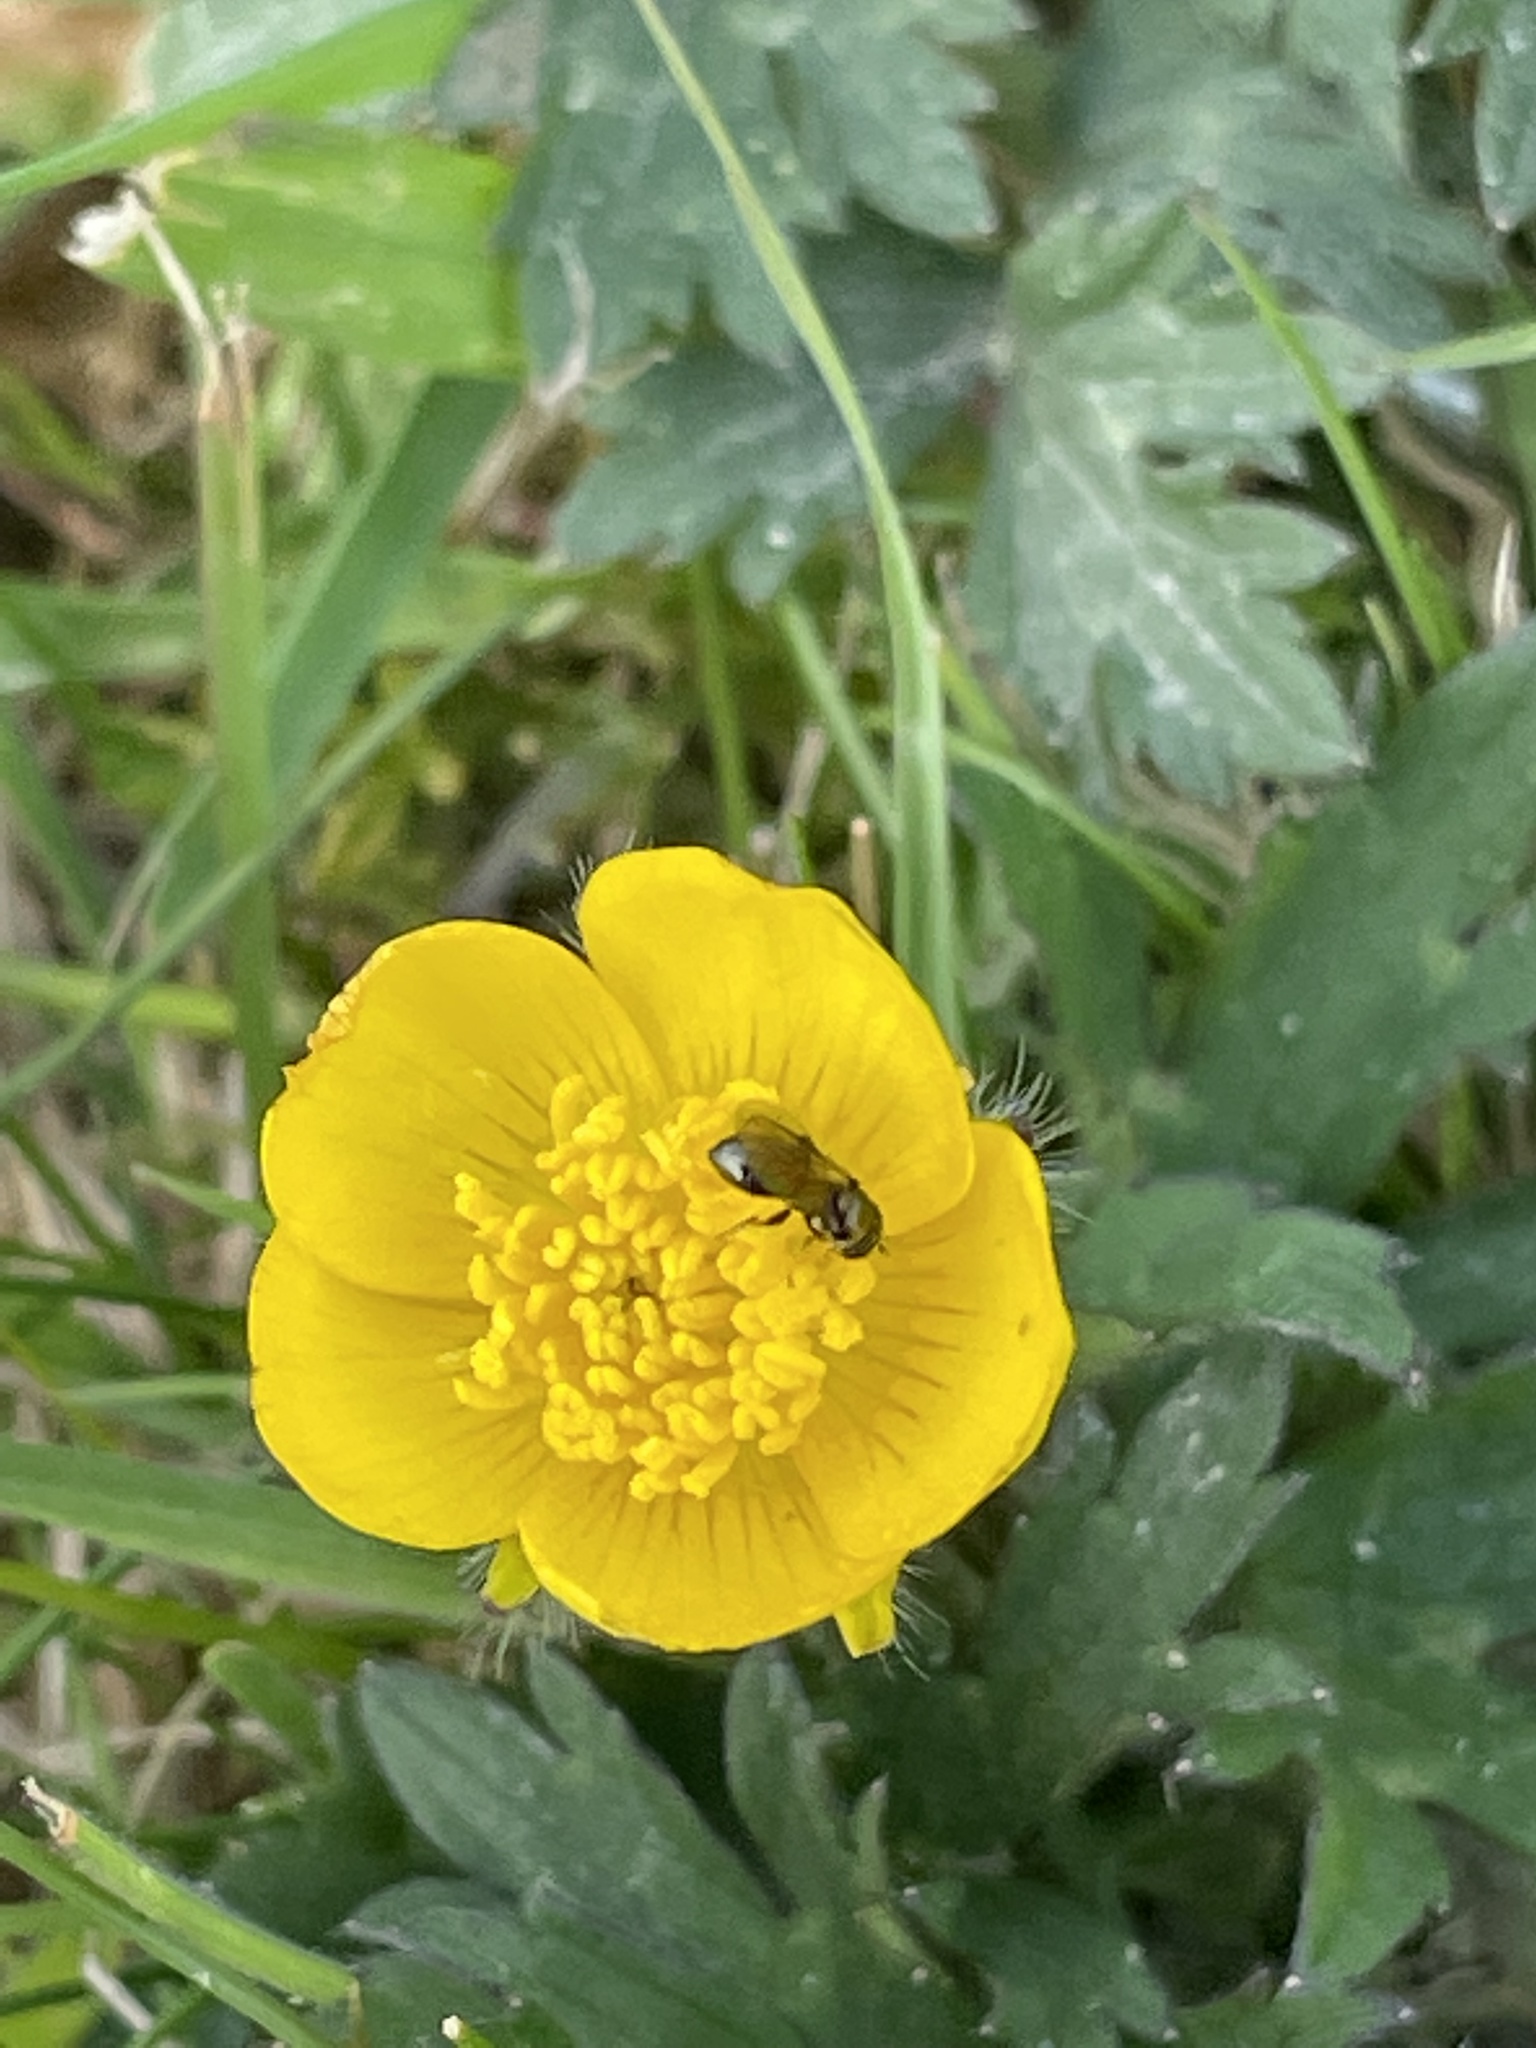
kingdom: Animalia
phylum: Arthropoda
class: Insecta
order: Diptera
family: Syrphidae
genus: Neoascia
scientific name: Neoascia
